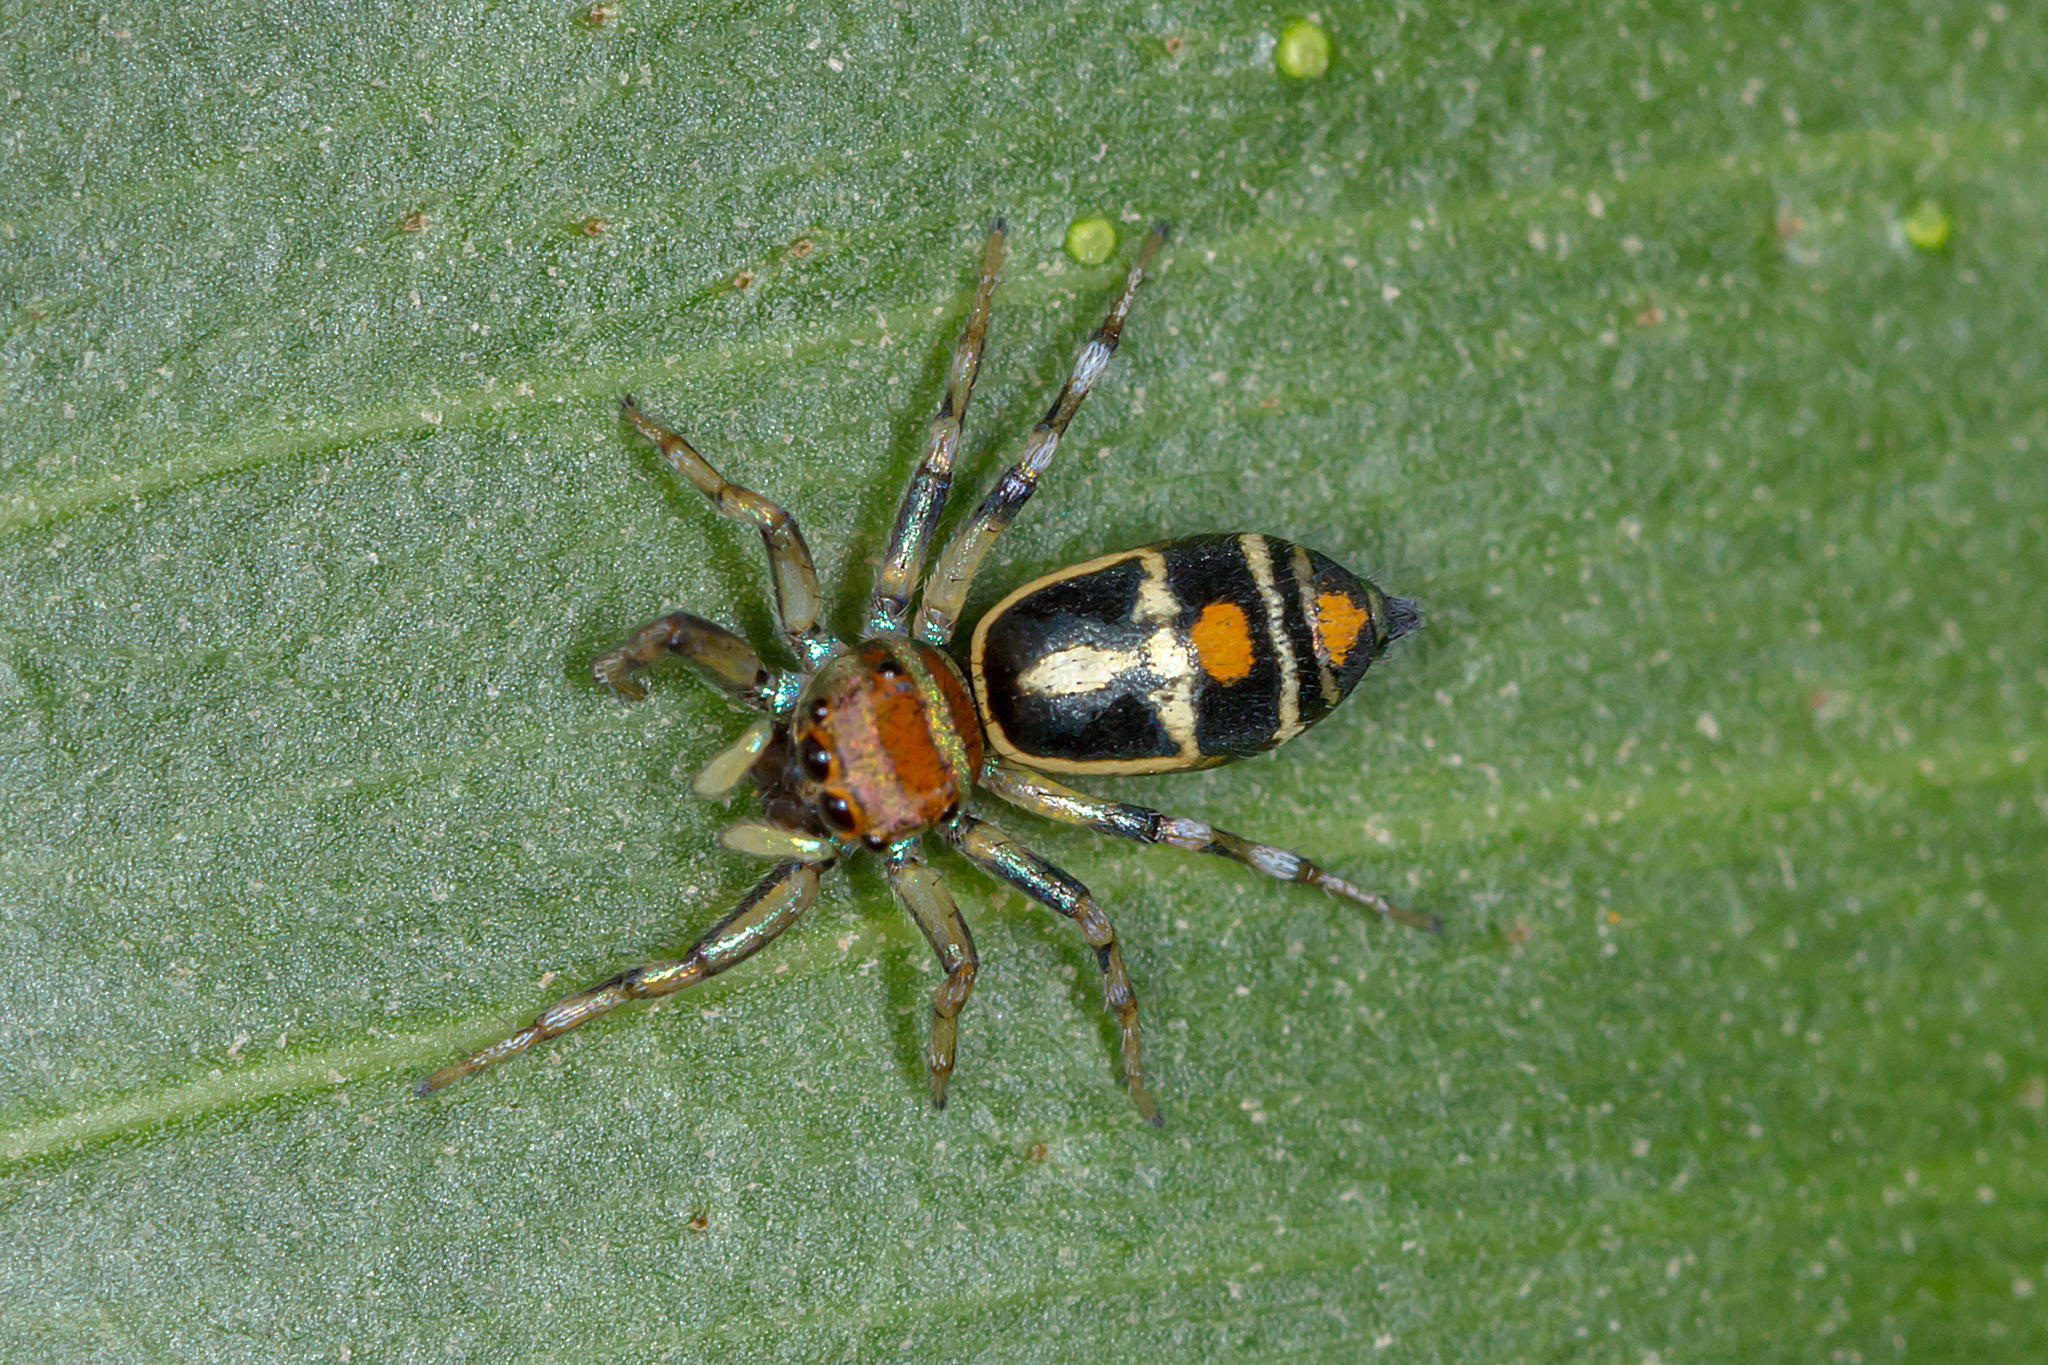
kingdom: Animalia
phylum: Arthropoda
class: Arachnida
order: Araneae
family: Salticidae
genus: Cosmophasis
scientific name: Cosmophasis micarioides
